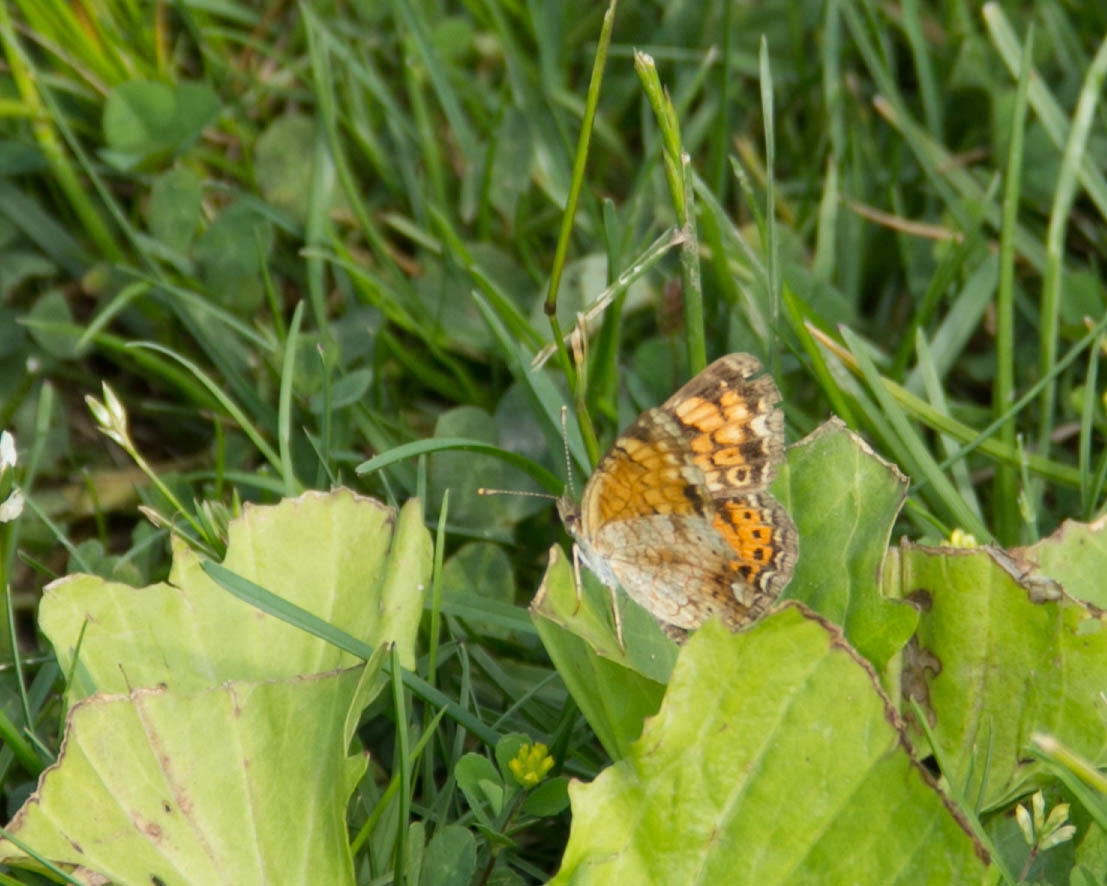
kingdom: Animalia
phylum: Arthropoda
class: Insecta
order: Lepidoptera
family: Nymphalidae
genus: Phyciodes
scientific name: Phyciodes tharos
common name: Pearl crescent
